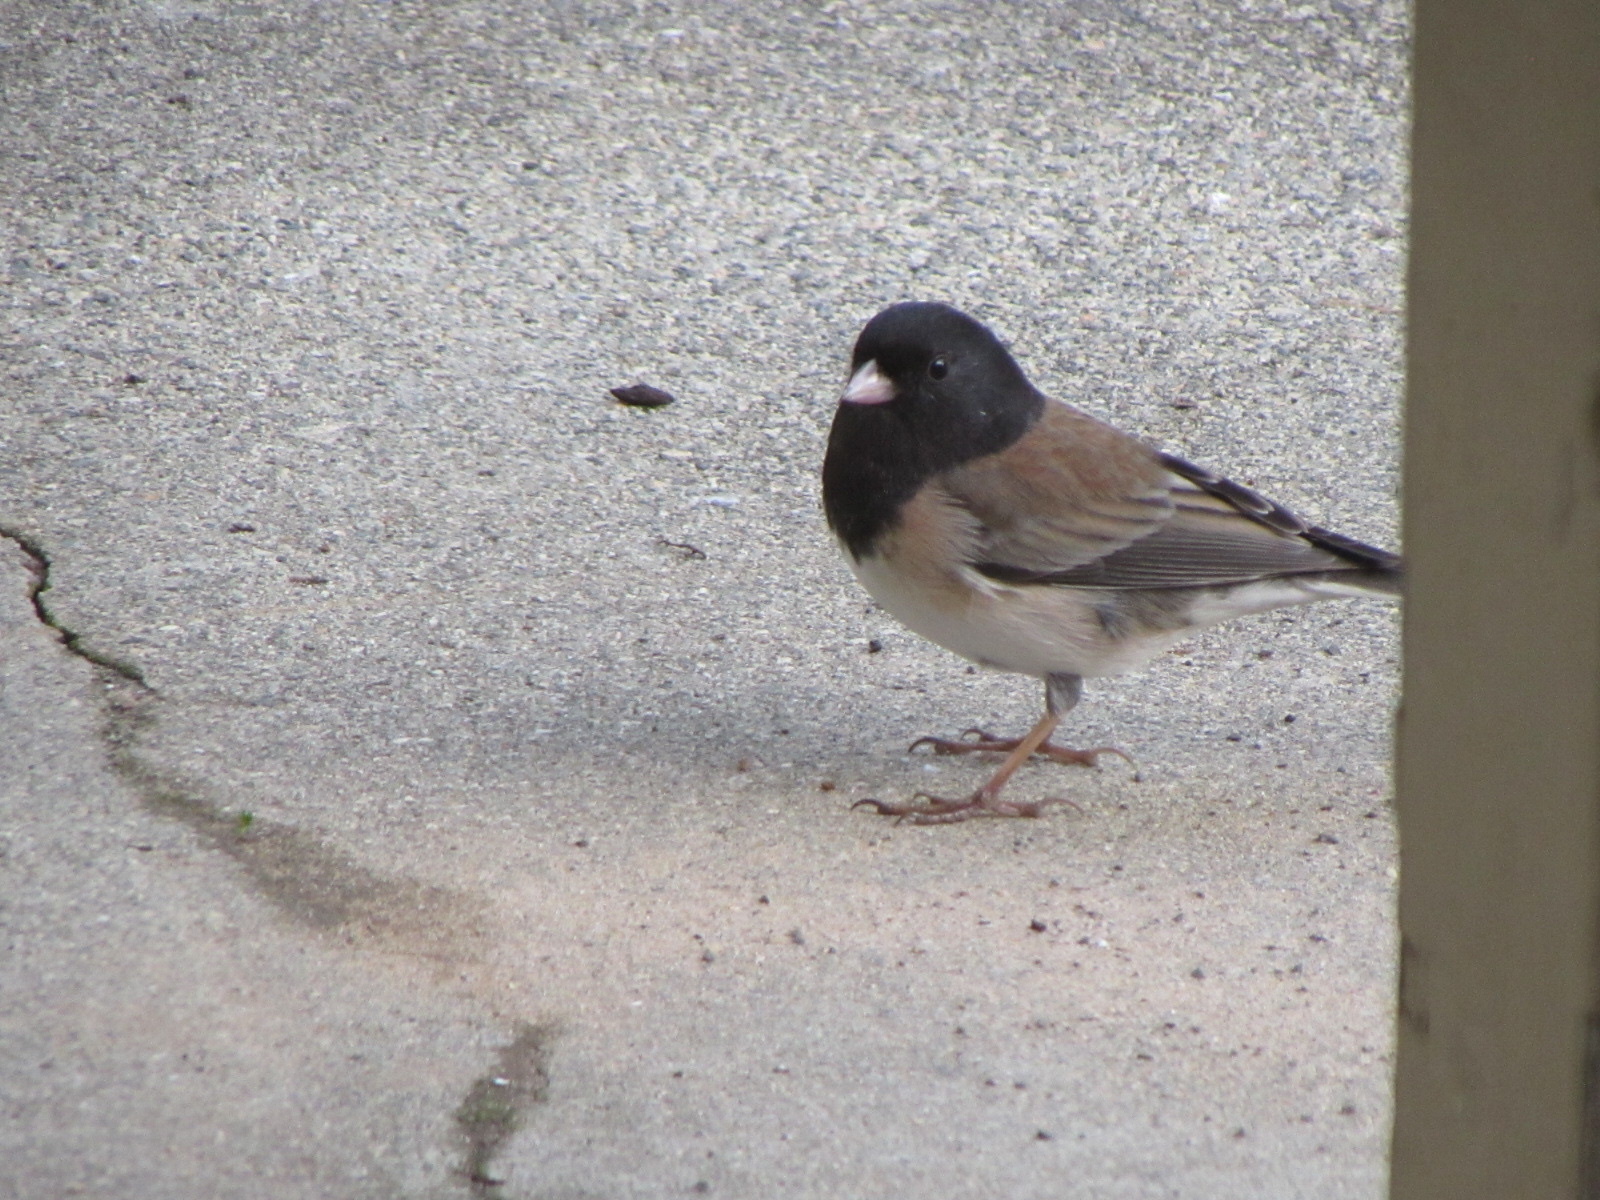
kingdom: Animalia
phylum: Chordata
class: Aves
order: Passeriformes
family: Passerellidae
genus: Junco
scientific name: Junco hyemalis
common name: Dark-eyed junco
